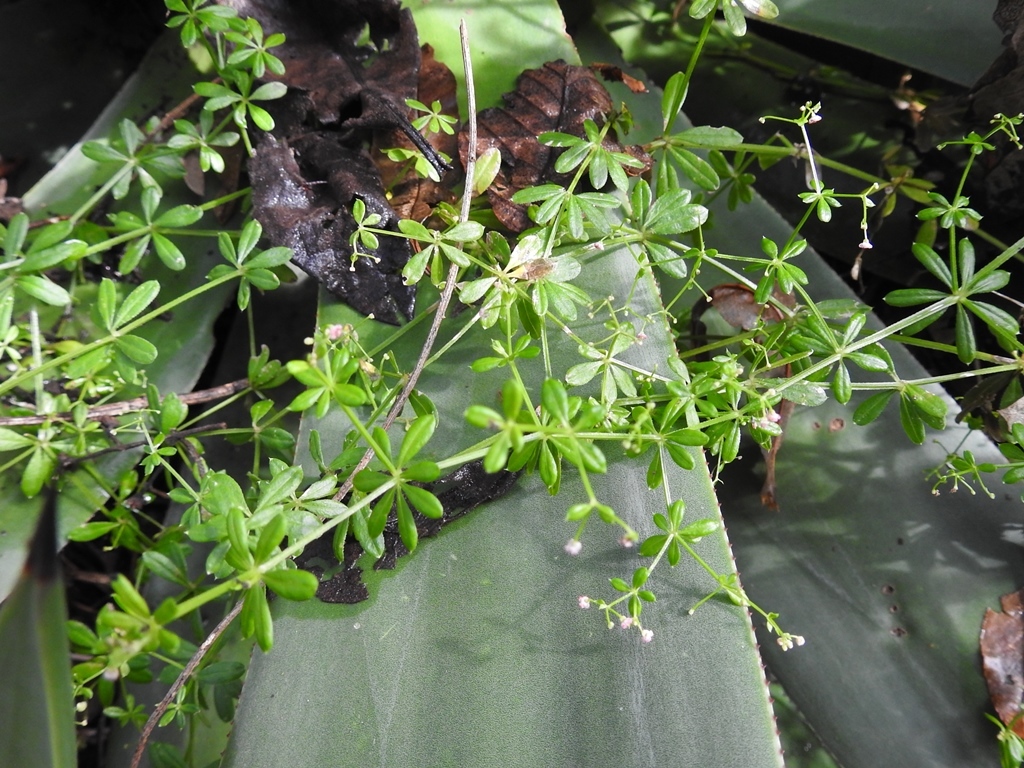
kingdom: Plantae
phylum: Tracheophyta
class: Magnoliopsida
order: Gentianales
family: Rubiaceae
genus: Galium
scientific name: Galium mexicanum
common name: Mexican bedstraw
